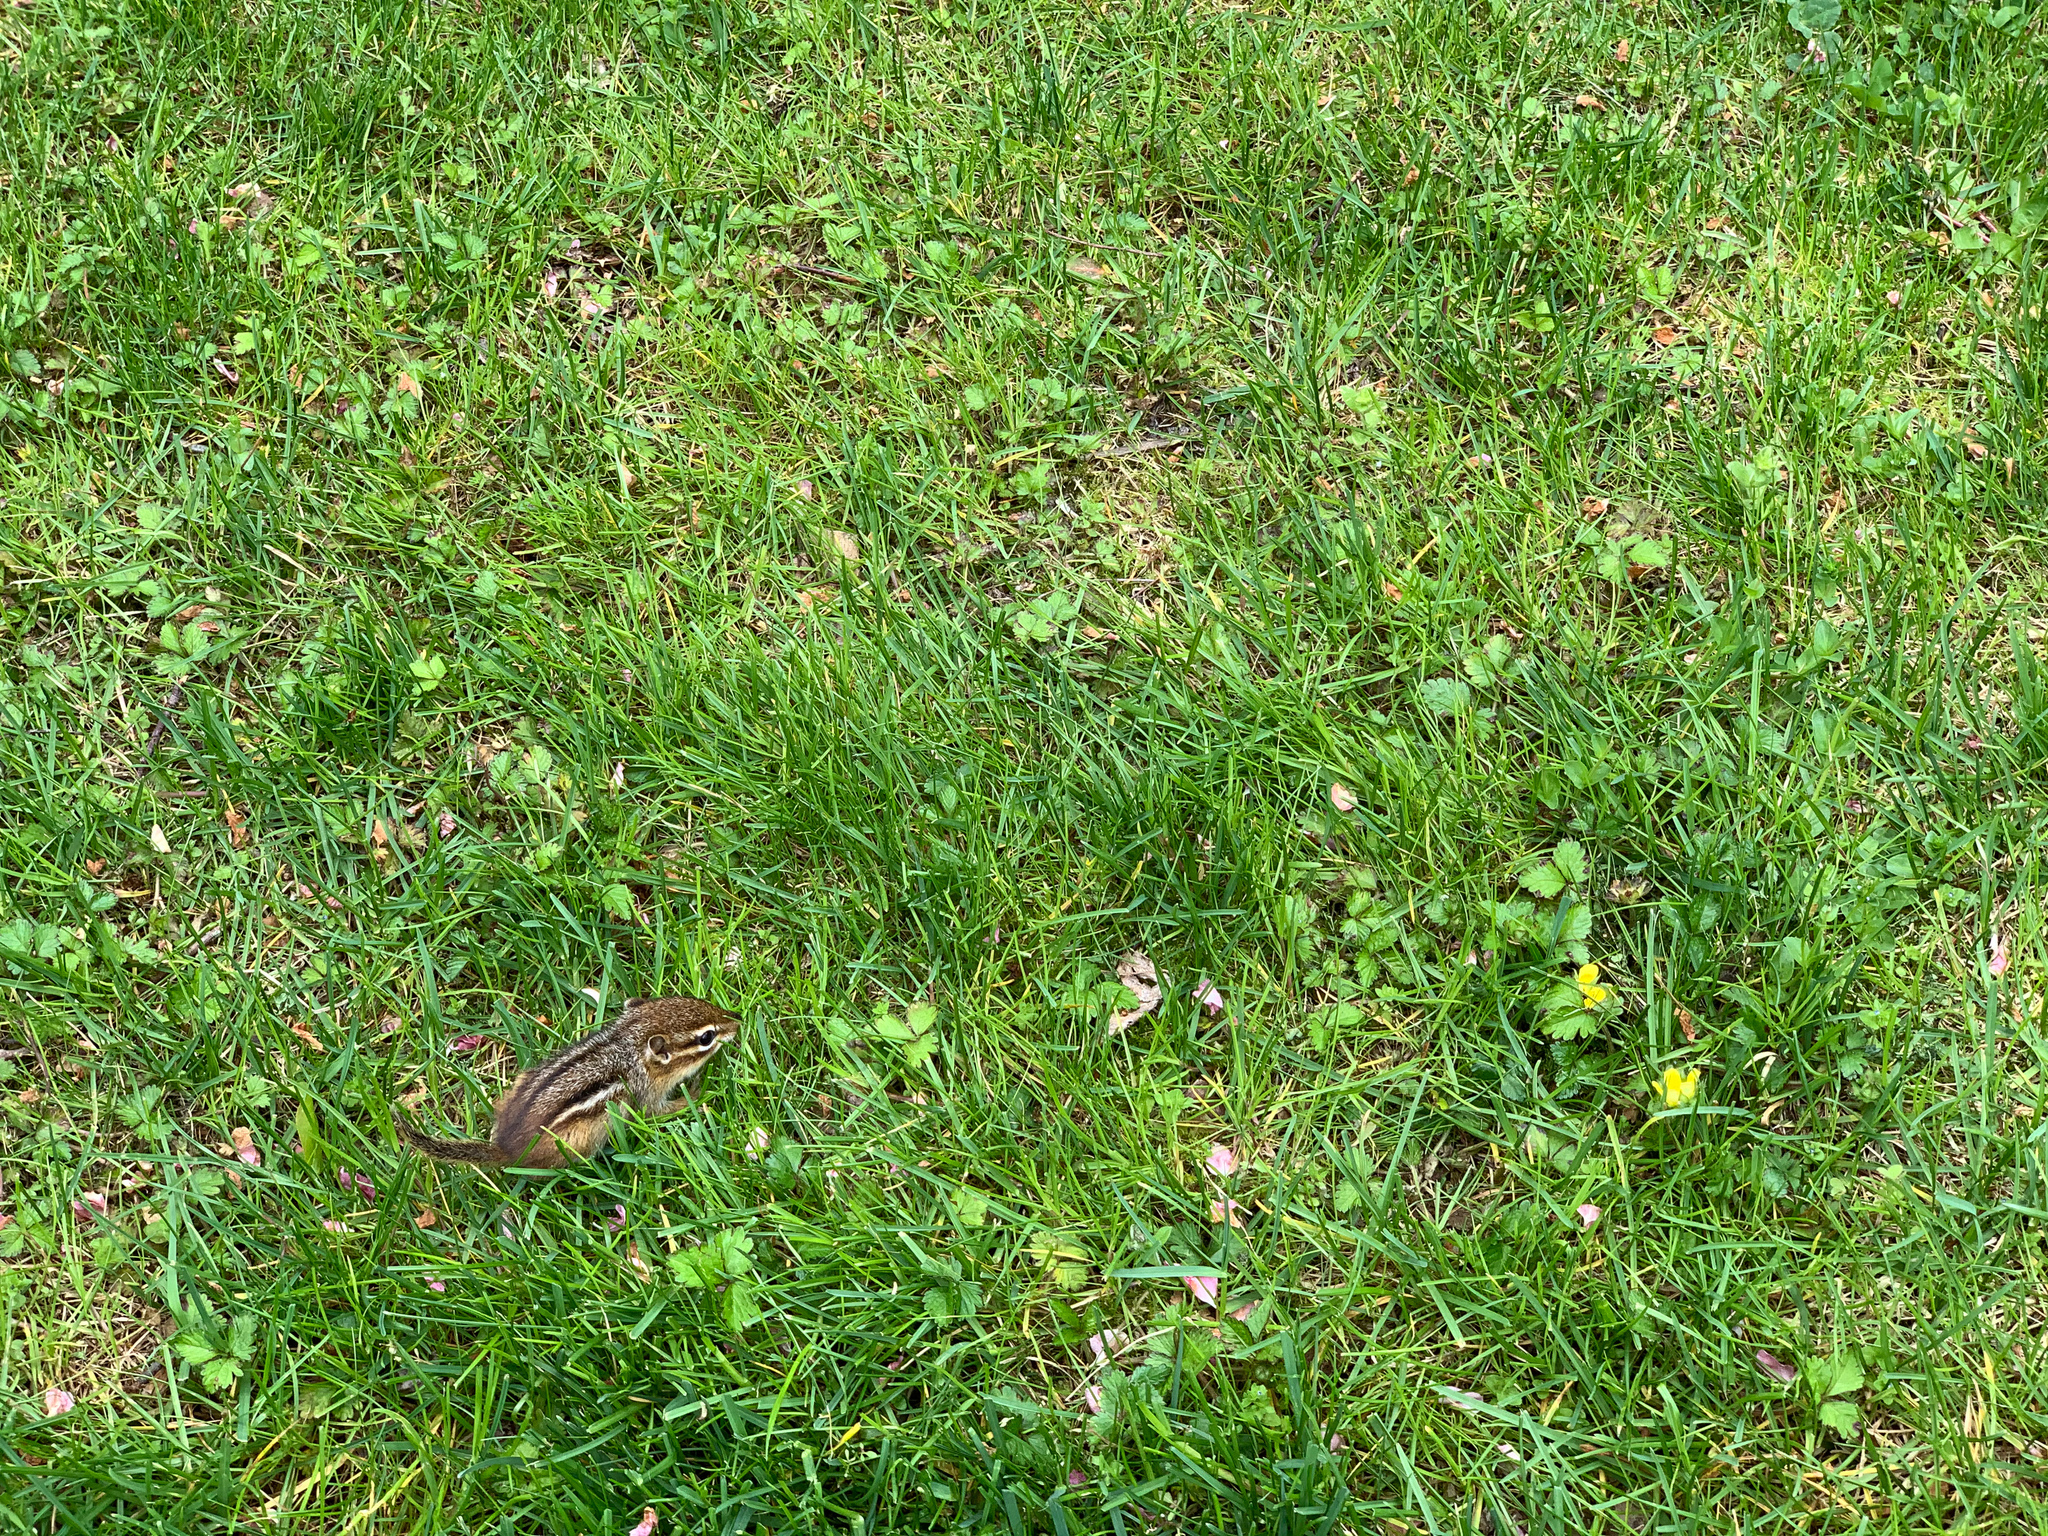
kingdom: Animalia
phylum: Chordata
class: Mammalia
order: Rodentia
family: Sciuridae
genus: Tamias
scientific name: Tamias striatus
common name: Eastern chipmunk
